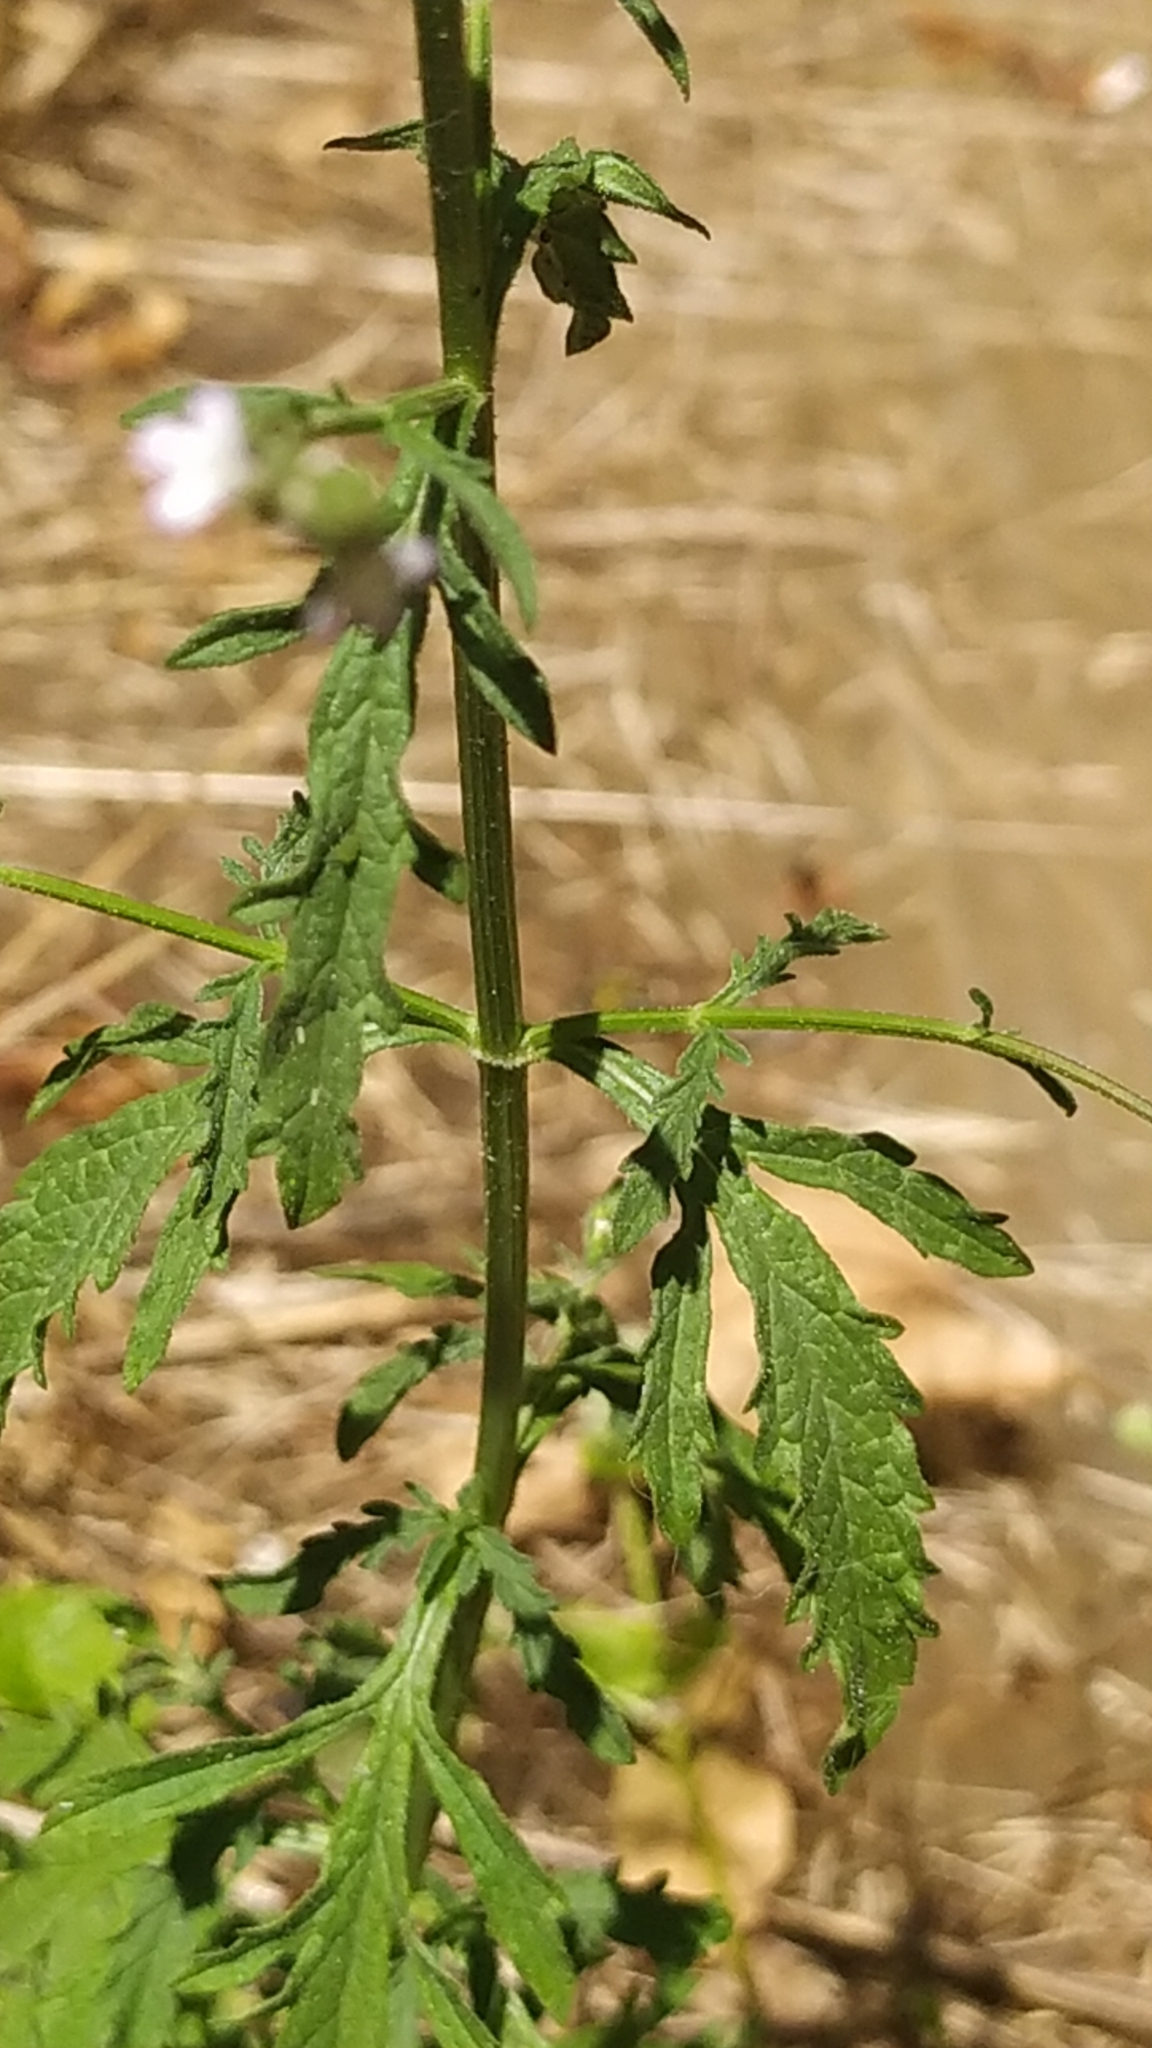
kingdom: Plantae
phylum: Tracheophyta
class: Magnoliopsida
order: Lamiales
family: Verbenaceae
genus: Verbena
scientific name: Verbena officinalis
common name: Vervain
